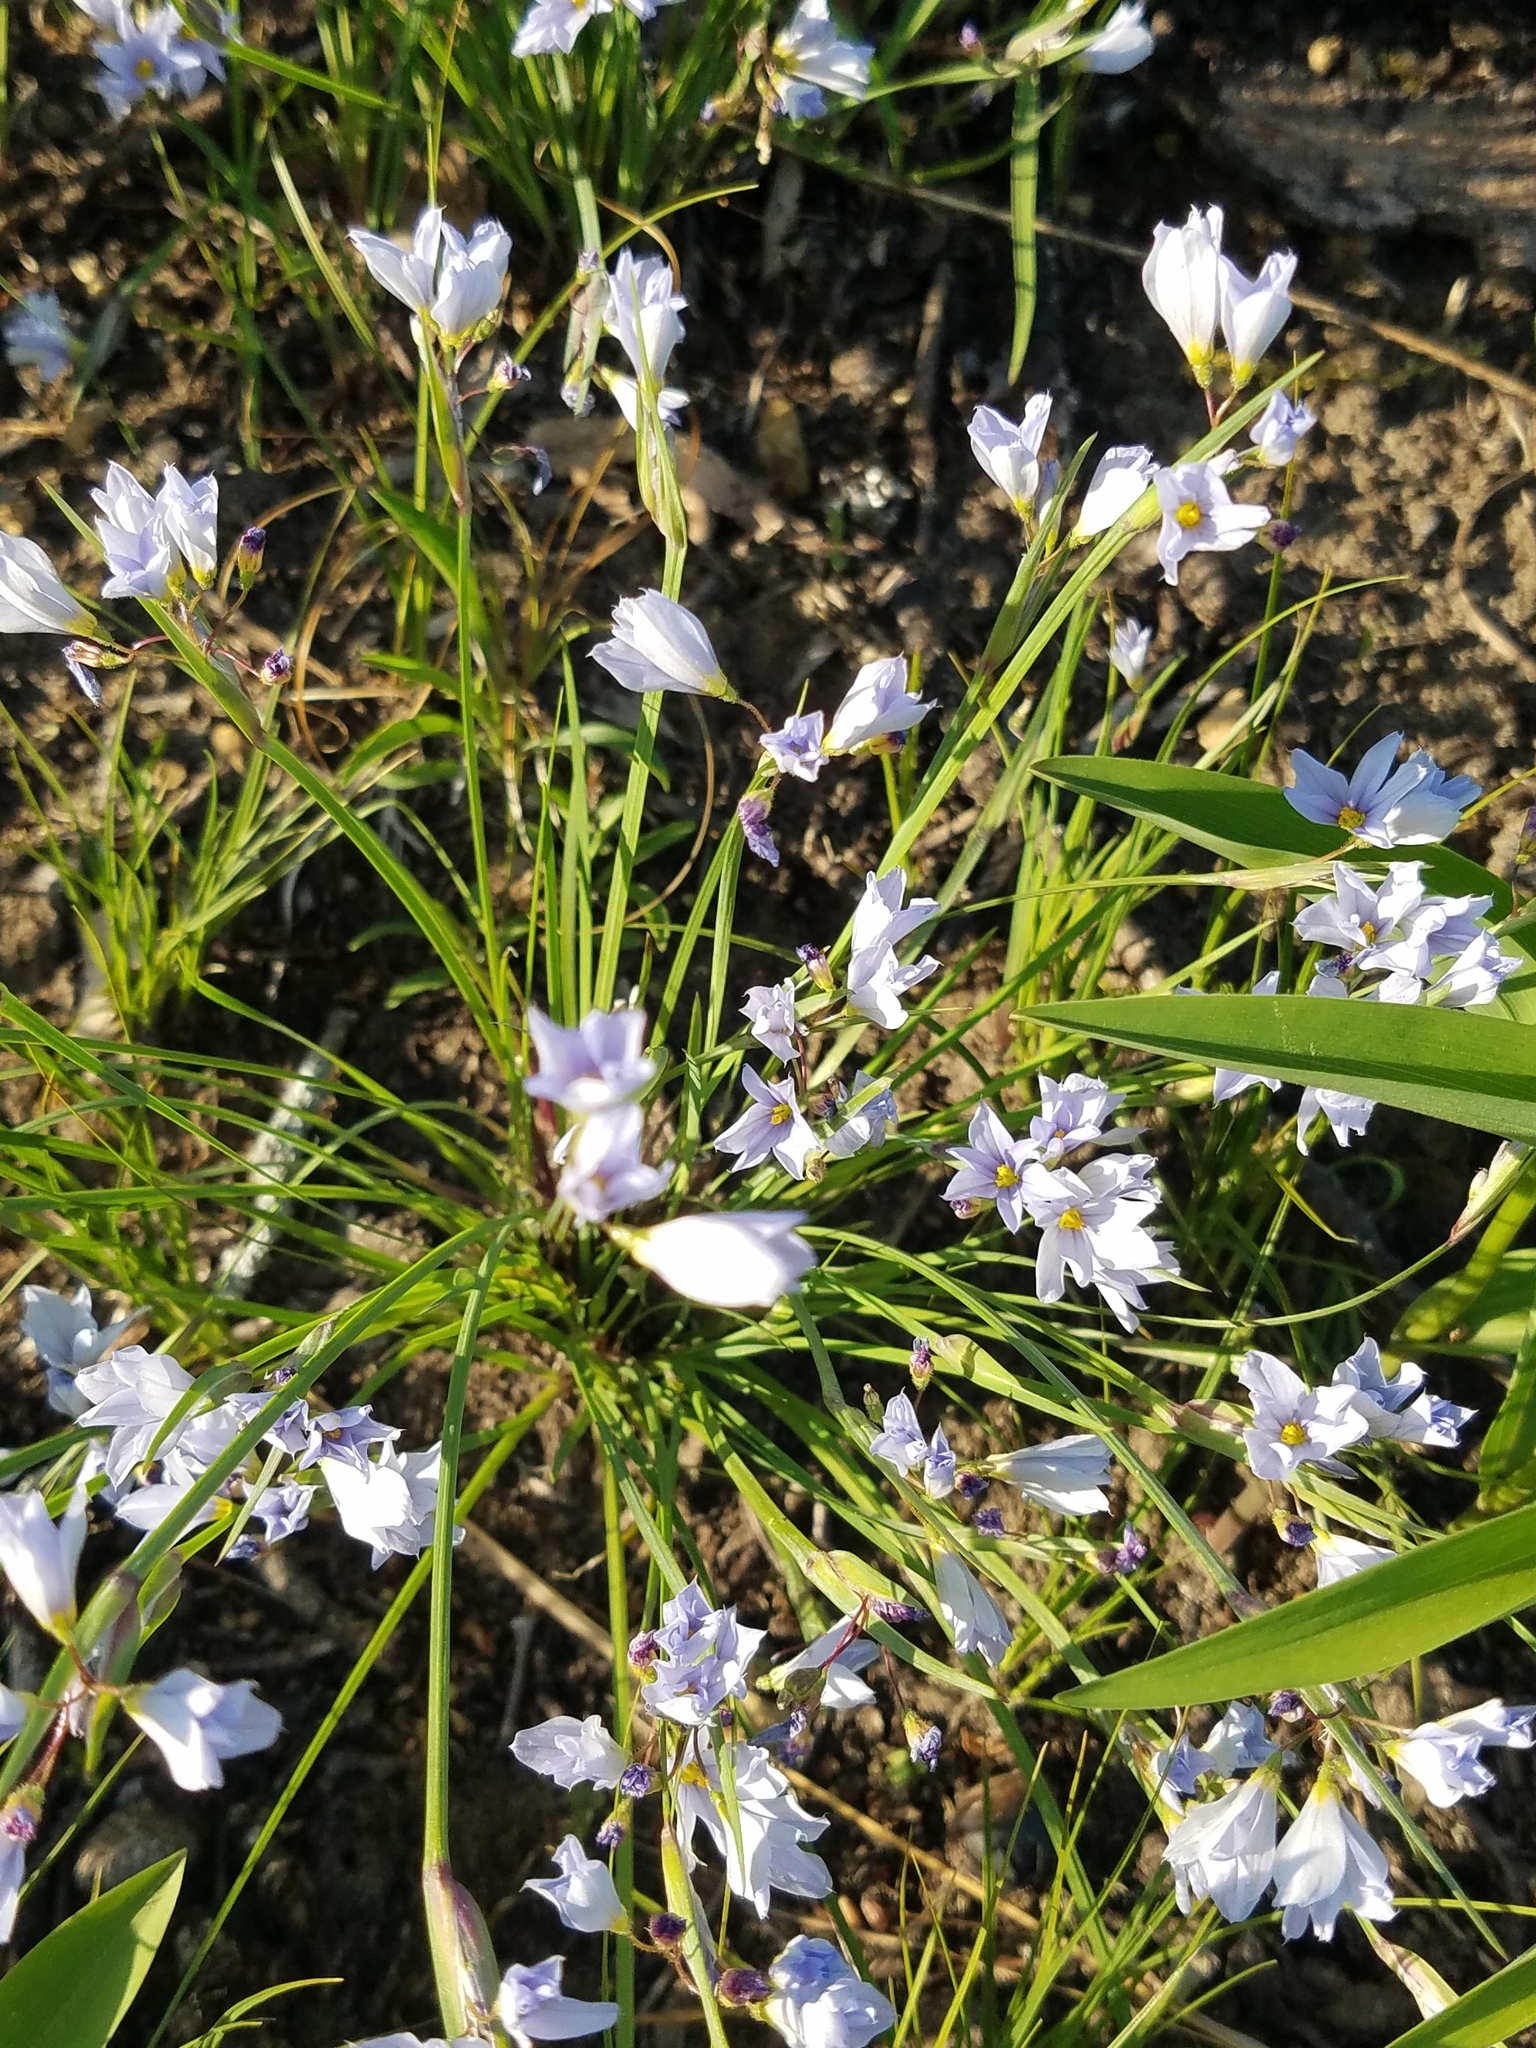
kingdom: Plantae
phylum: Tracheophyta
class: Liliopsida
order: Asparagales
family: Iridaceae
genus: Sisyrinchium
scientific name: Sisyrinchium campestre
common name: Prairie blue-eyed-grass
